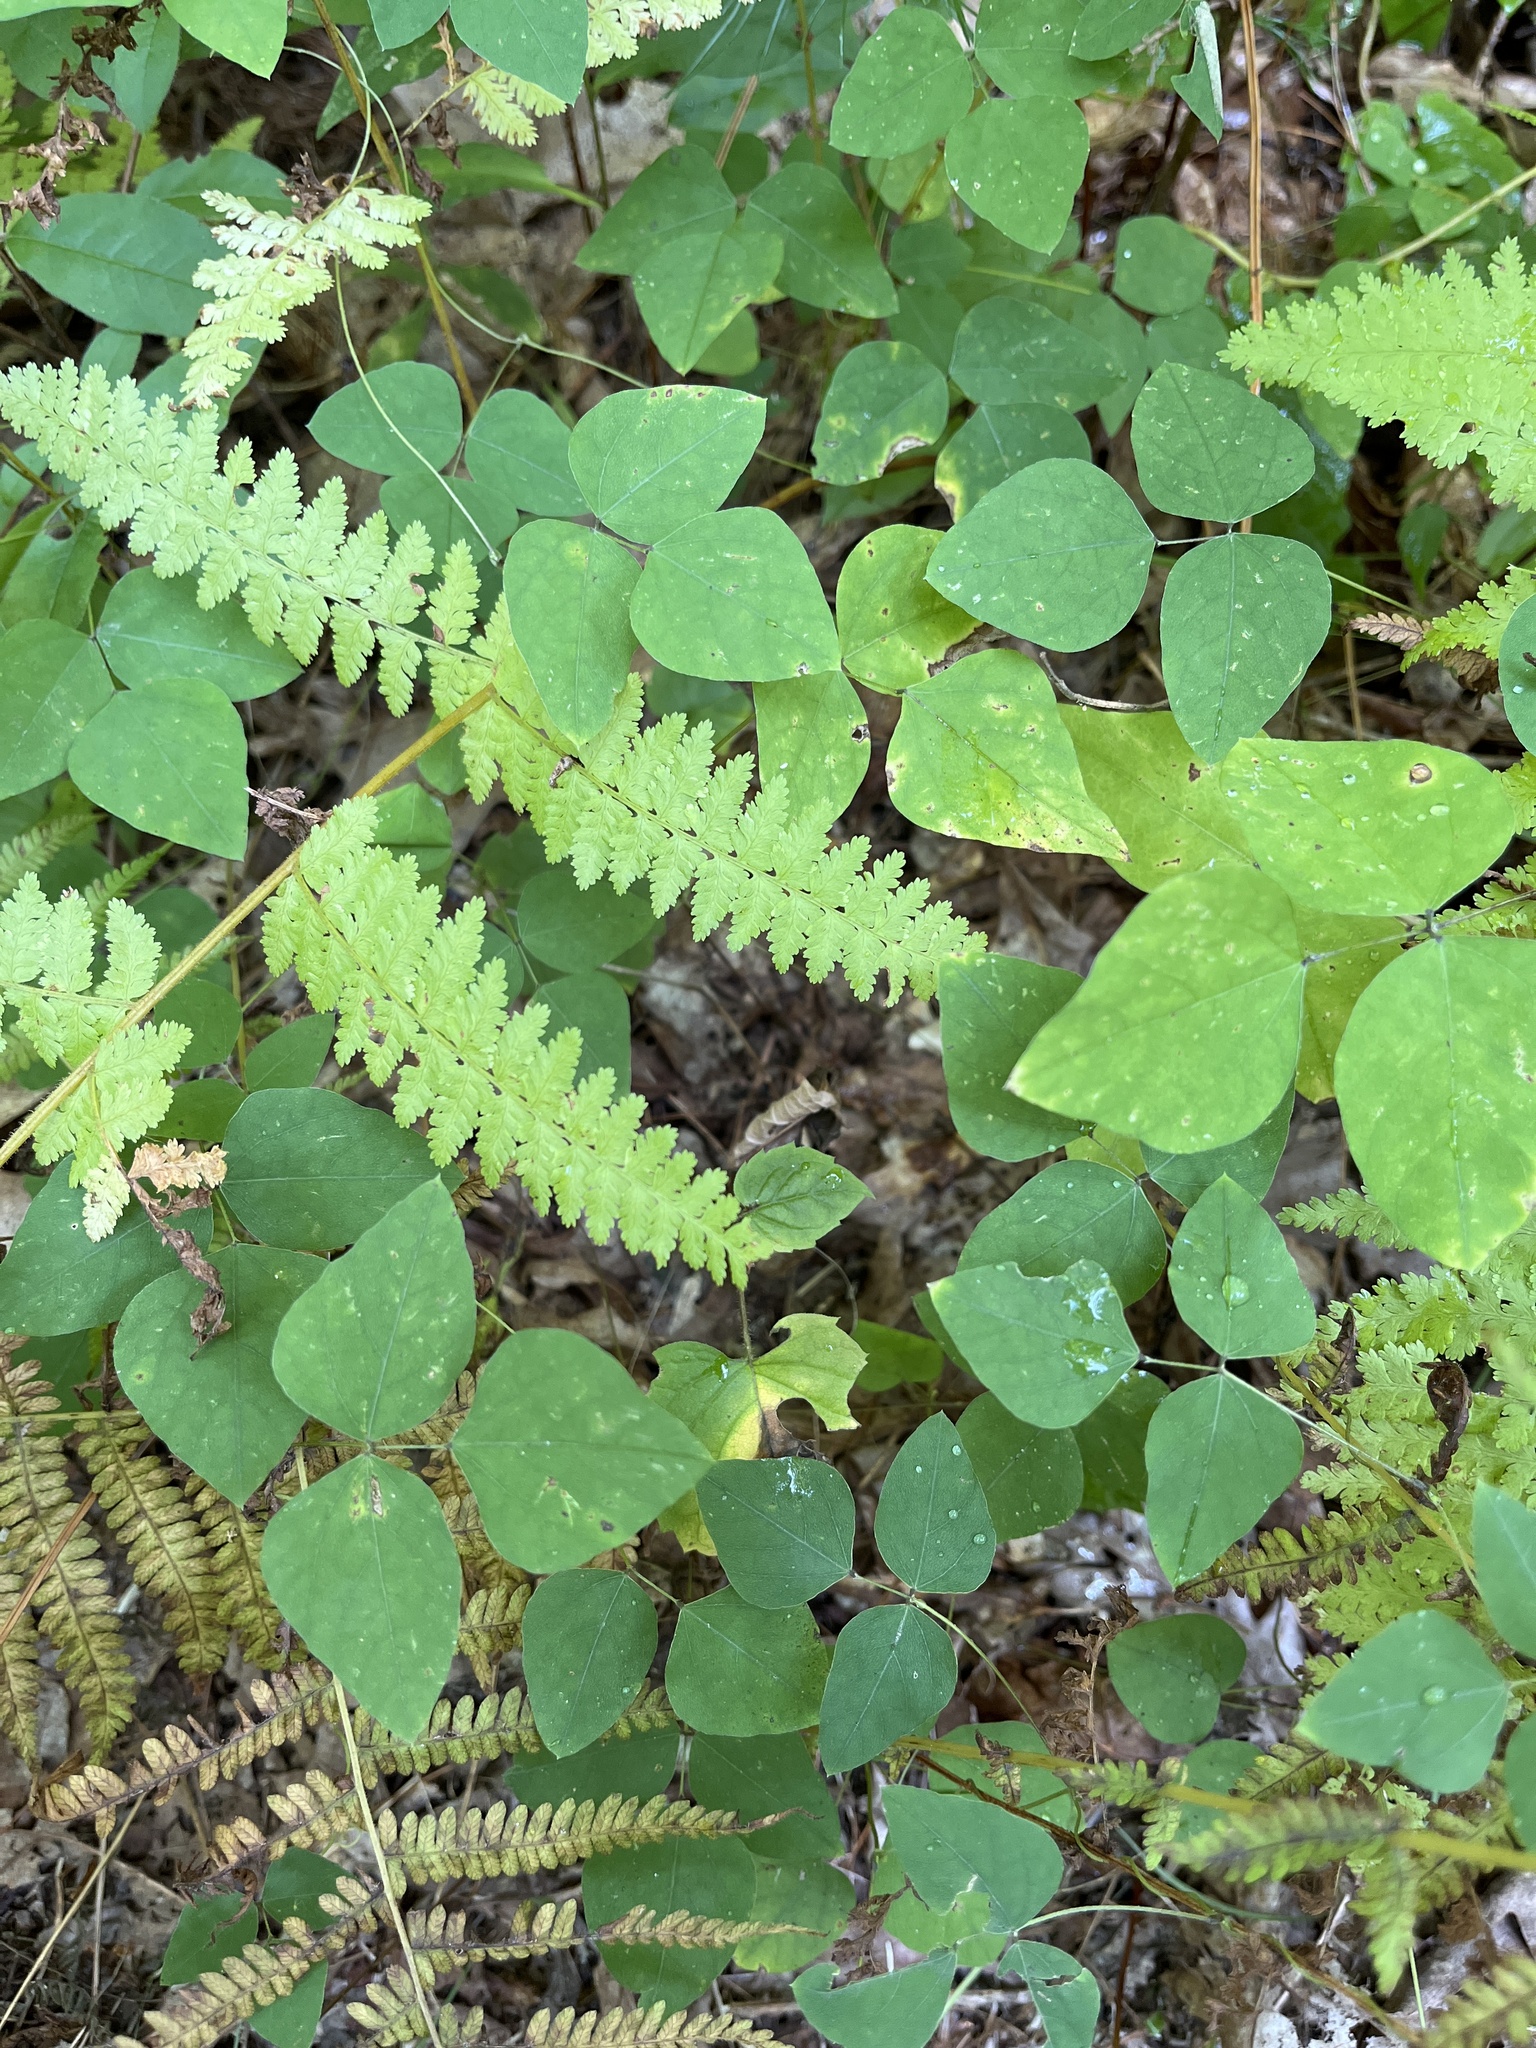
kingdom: Plantae
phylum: Tracheophyta
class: Magnoliopsida
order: Fabales
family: Fabaceae
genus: Amphicarpaea
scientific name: Amphicarpaea bracteata
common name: American hog peanut
